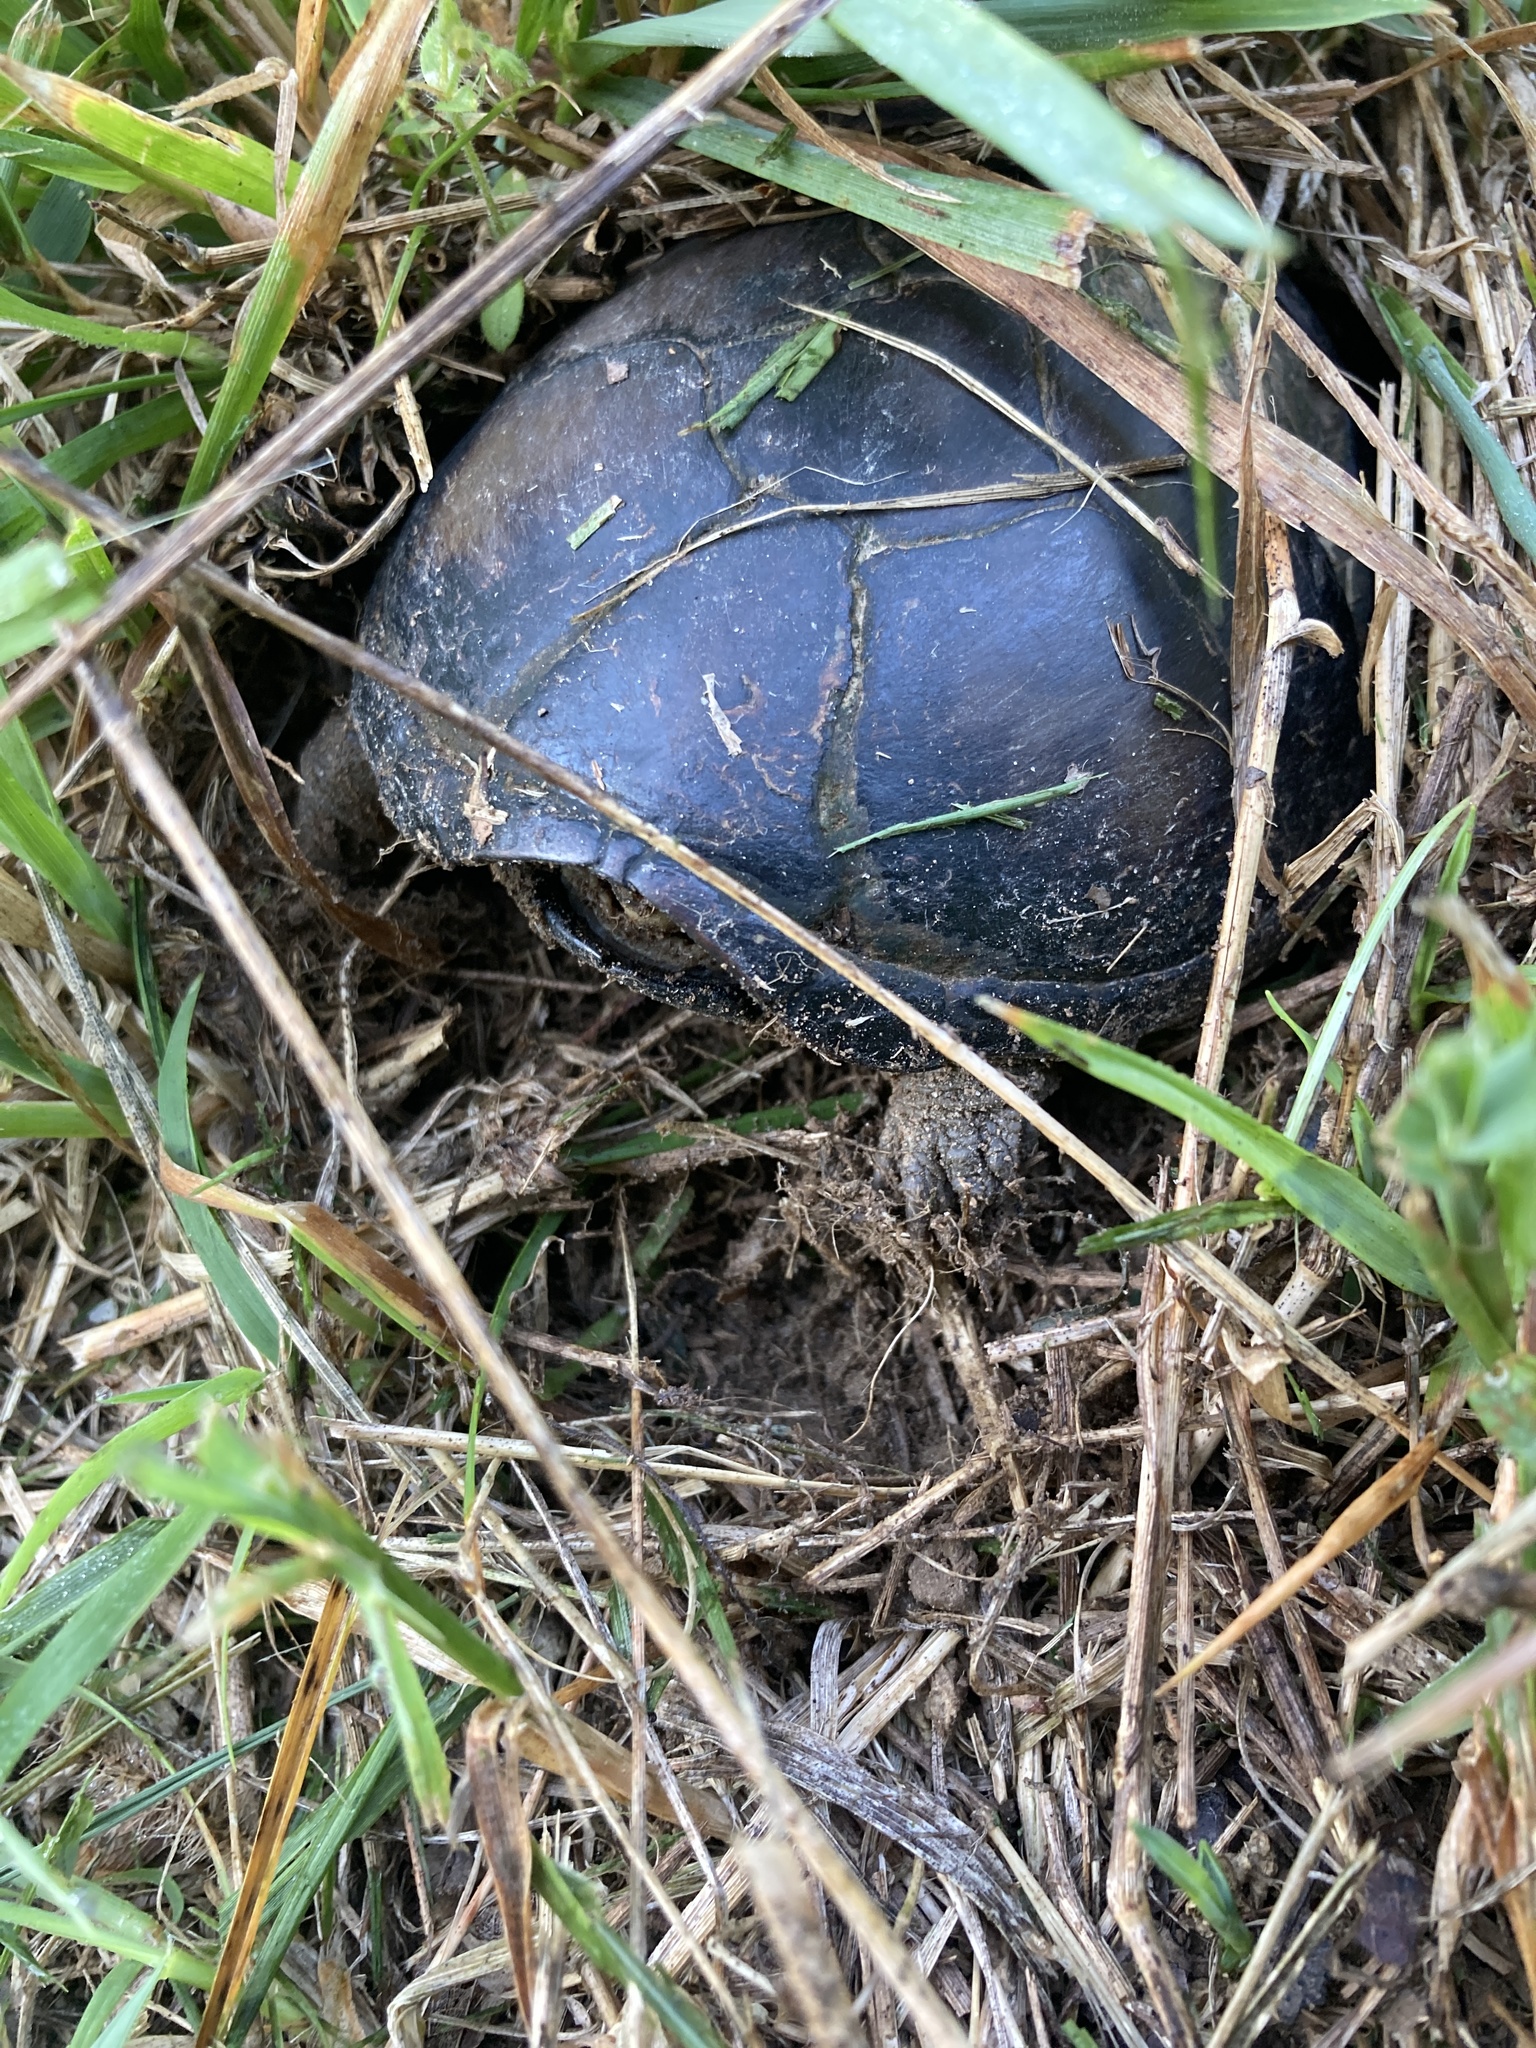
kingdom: Animalia
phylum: Chordata
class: Testudines
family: Kinosternidae
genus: Kinosternon
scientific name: Kinosternon subrubrum
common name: Eastern mud turtle
